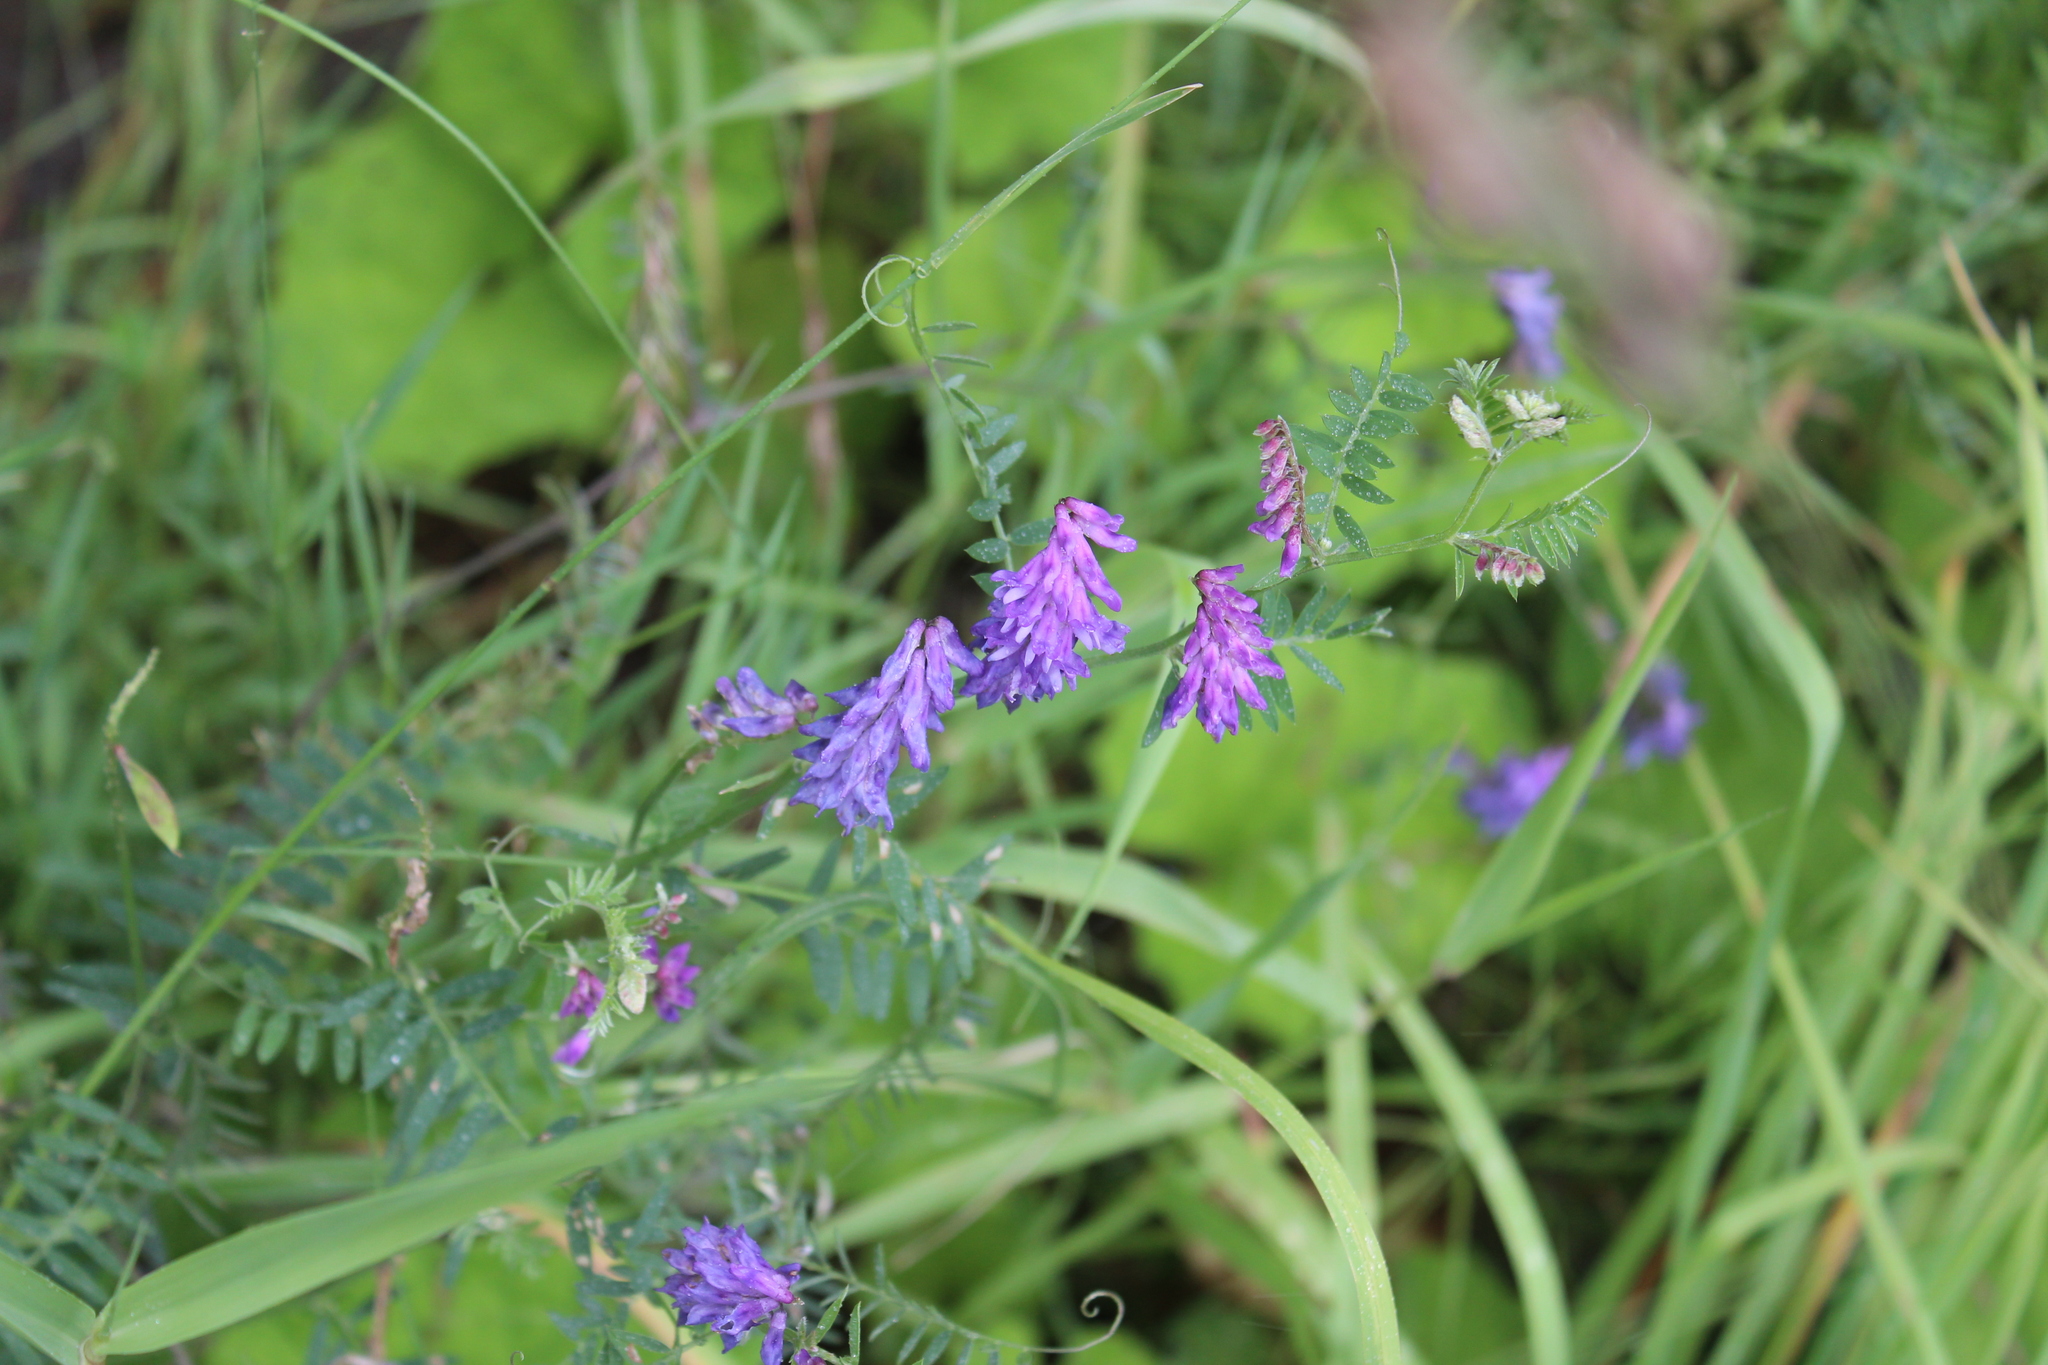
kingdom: Plantae
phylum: Tracheophyta
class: Magnoliopsida
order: Fabales
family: Fabaceae
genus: Vicia
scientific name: Vicia cracca
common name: Bird vetch
